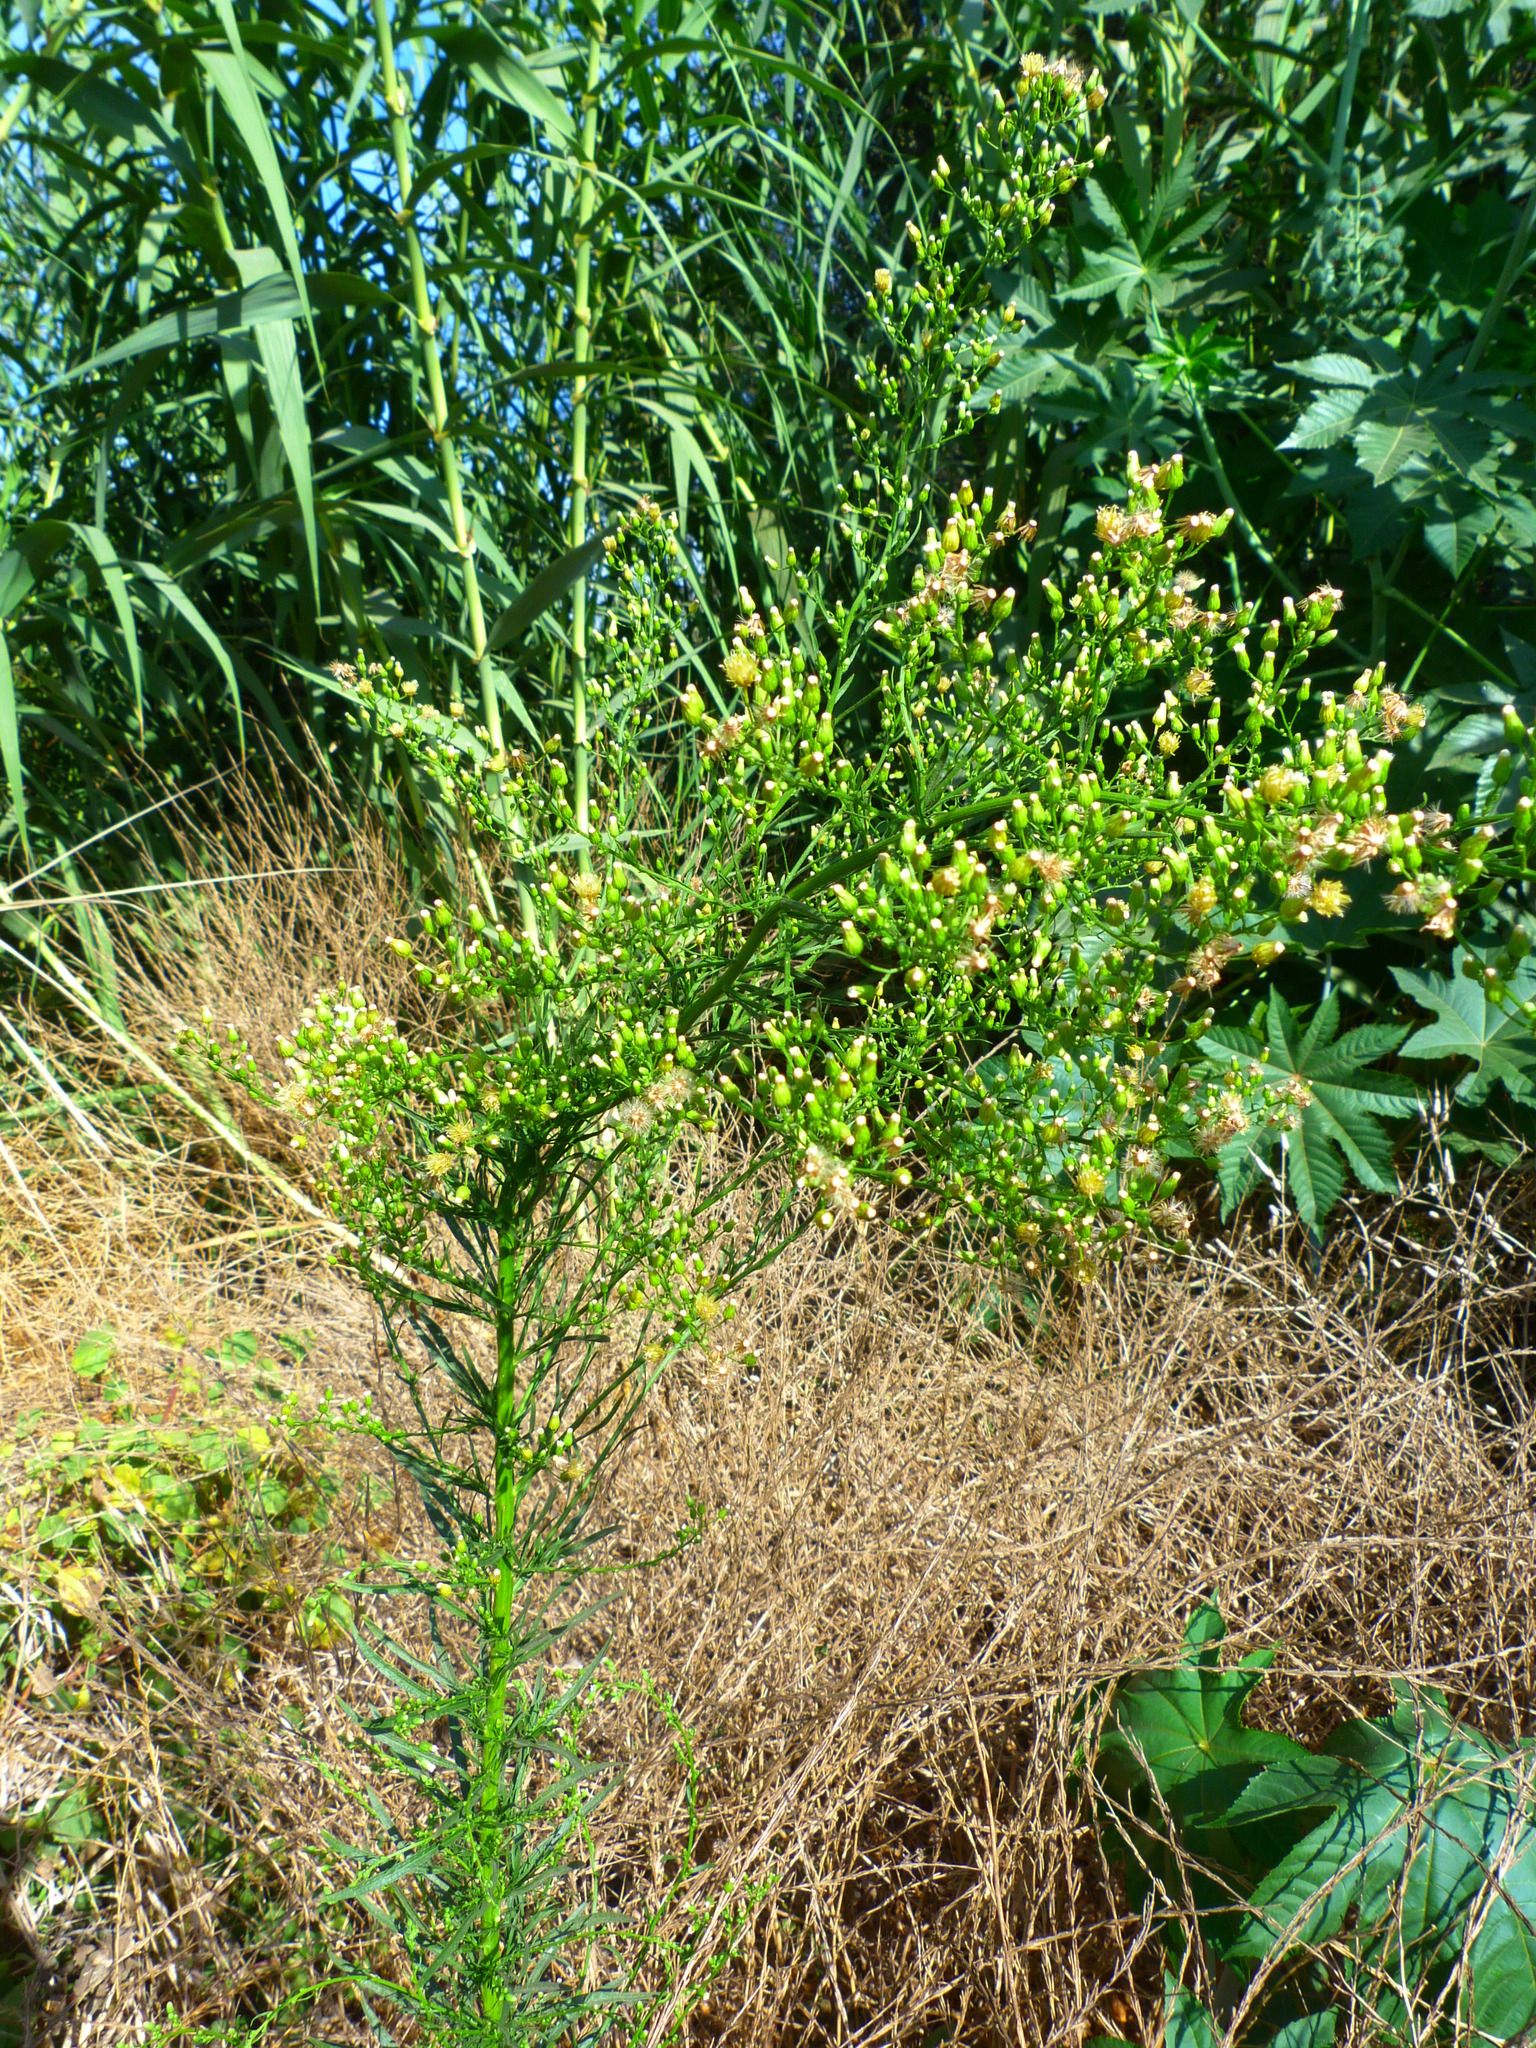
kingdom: Plantae
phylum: Tracheophyta
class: Magnoliopsida
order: Asterales
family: Asteraceae
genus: Erigeron
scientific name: Erigeron canadensis
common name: Canadian fleabane
